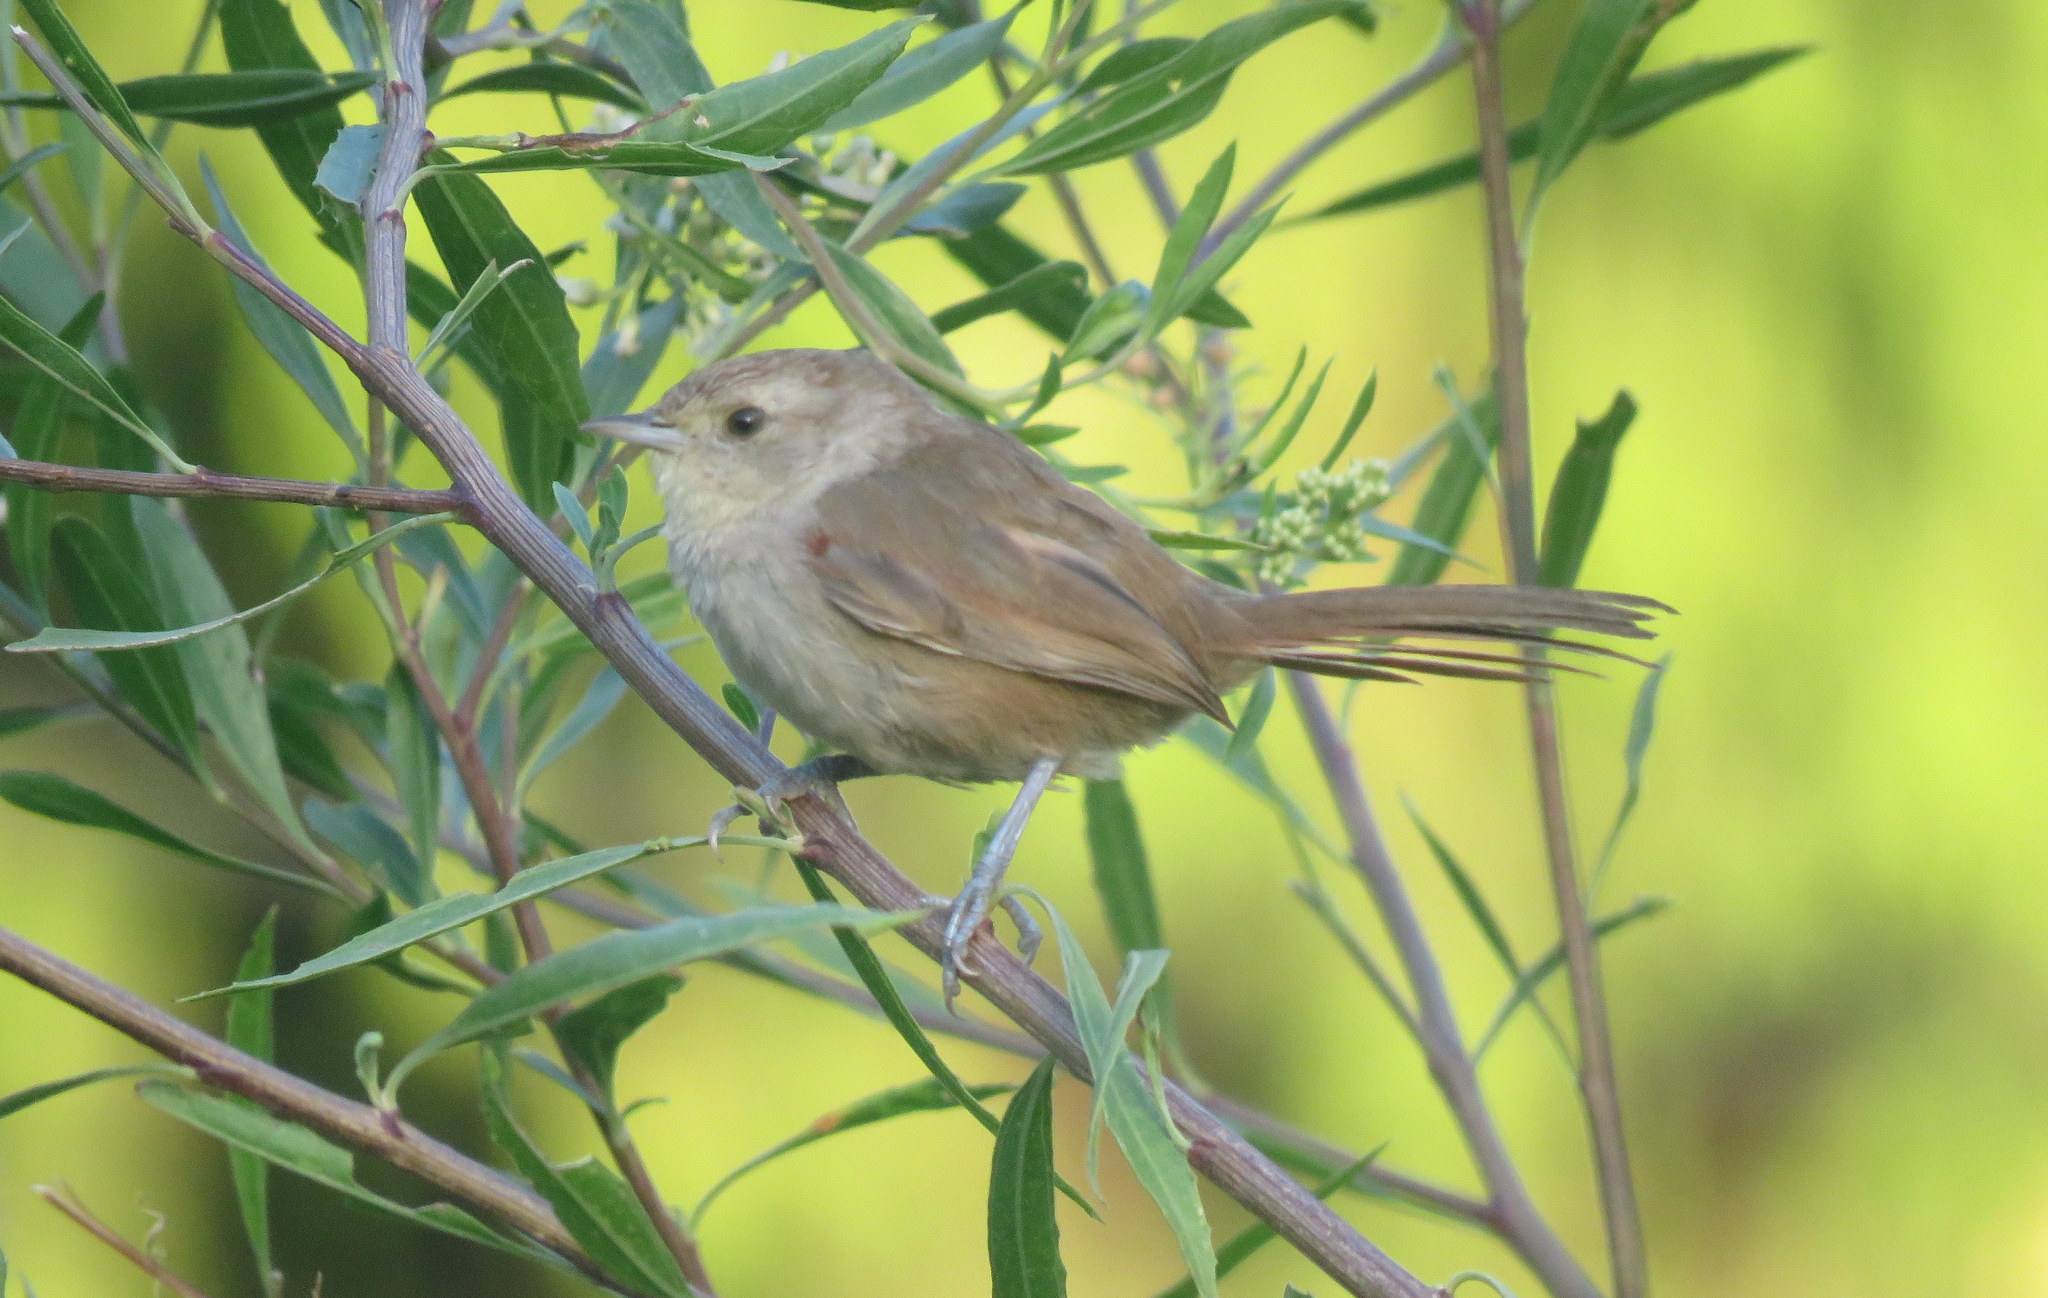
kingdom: Animalia
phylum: Chordata
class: Aves
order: Passeriformes
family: Furnariidae
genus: Phacellodomus
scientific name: Phacellodomus sibilatrix
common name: Little thornbird
